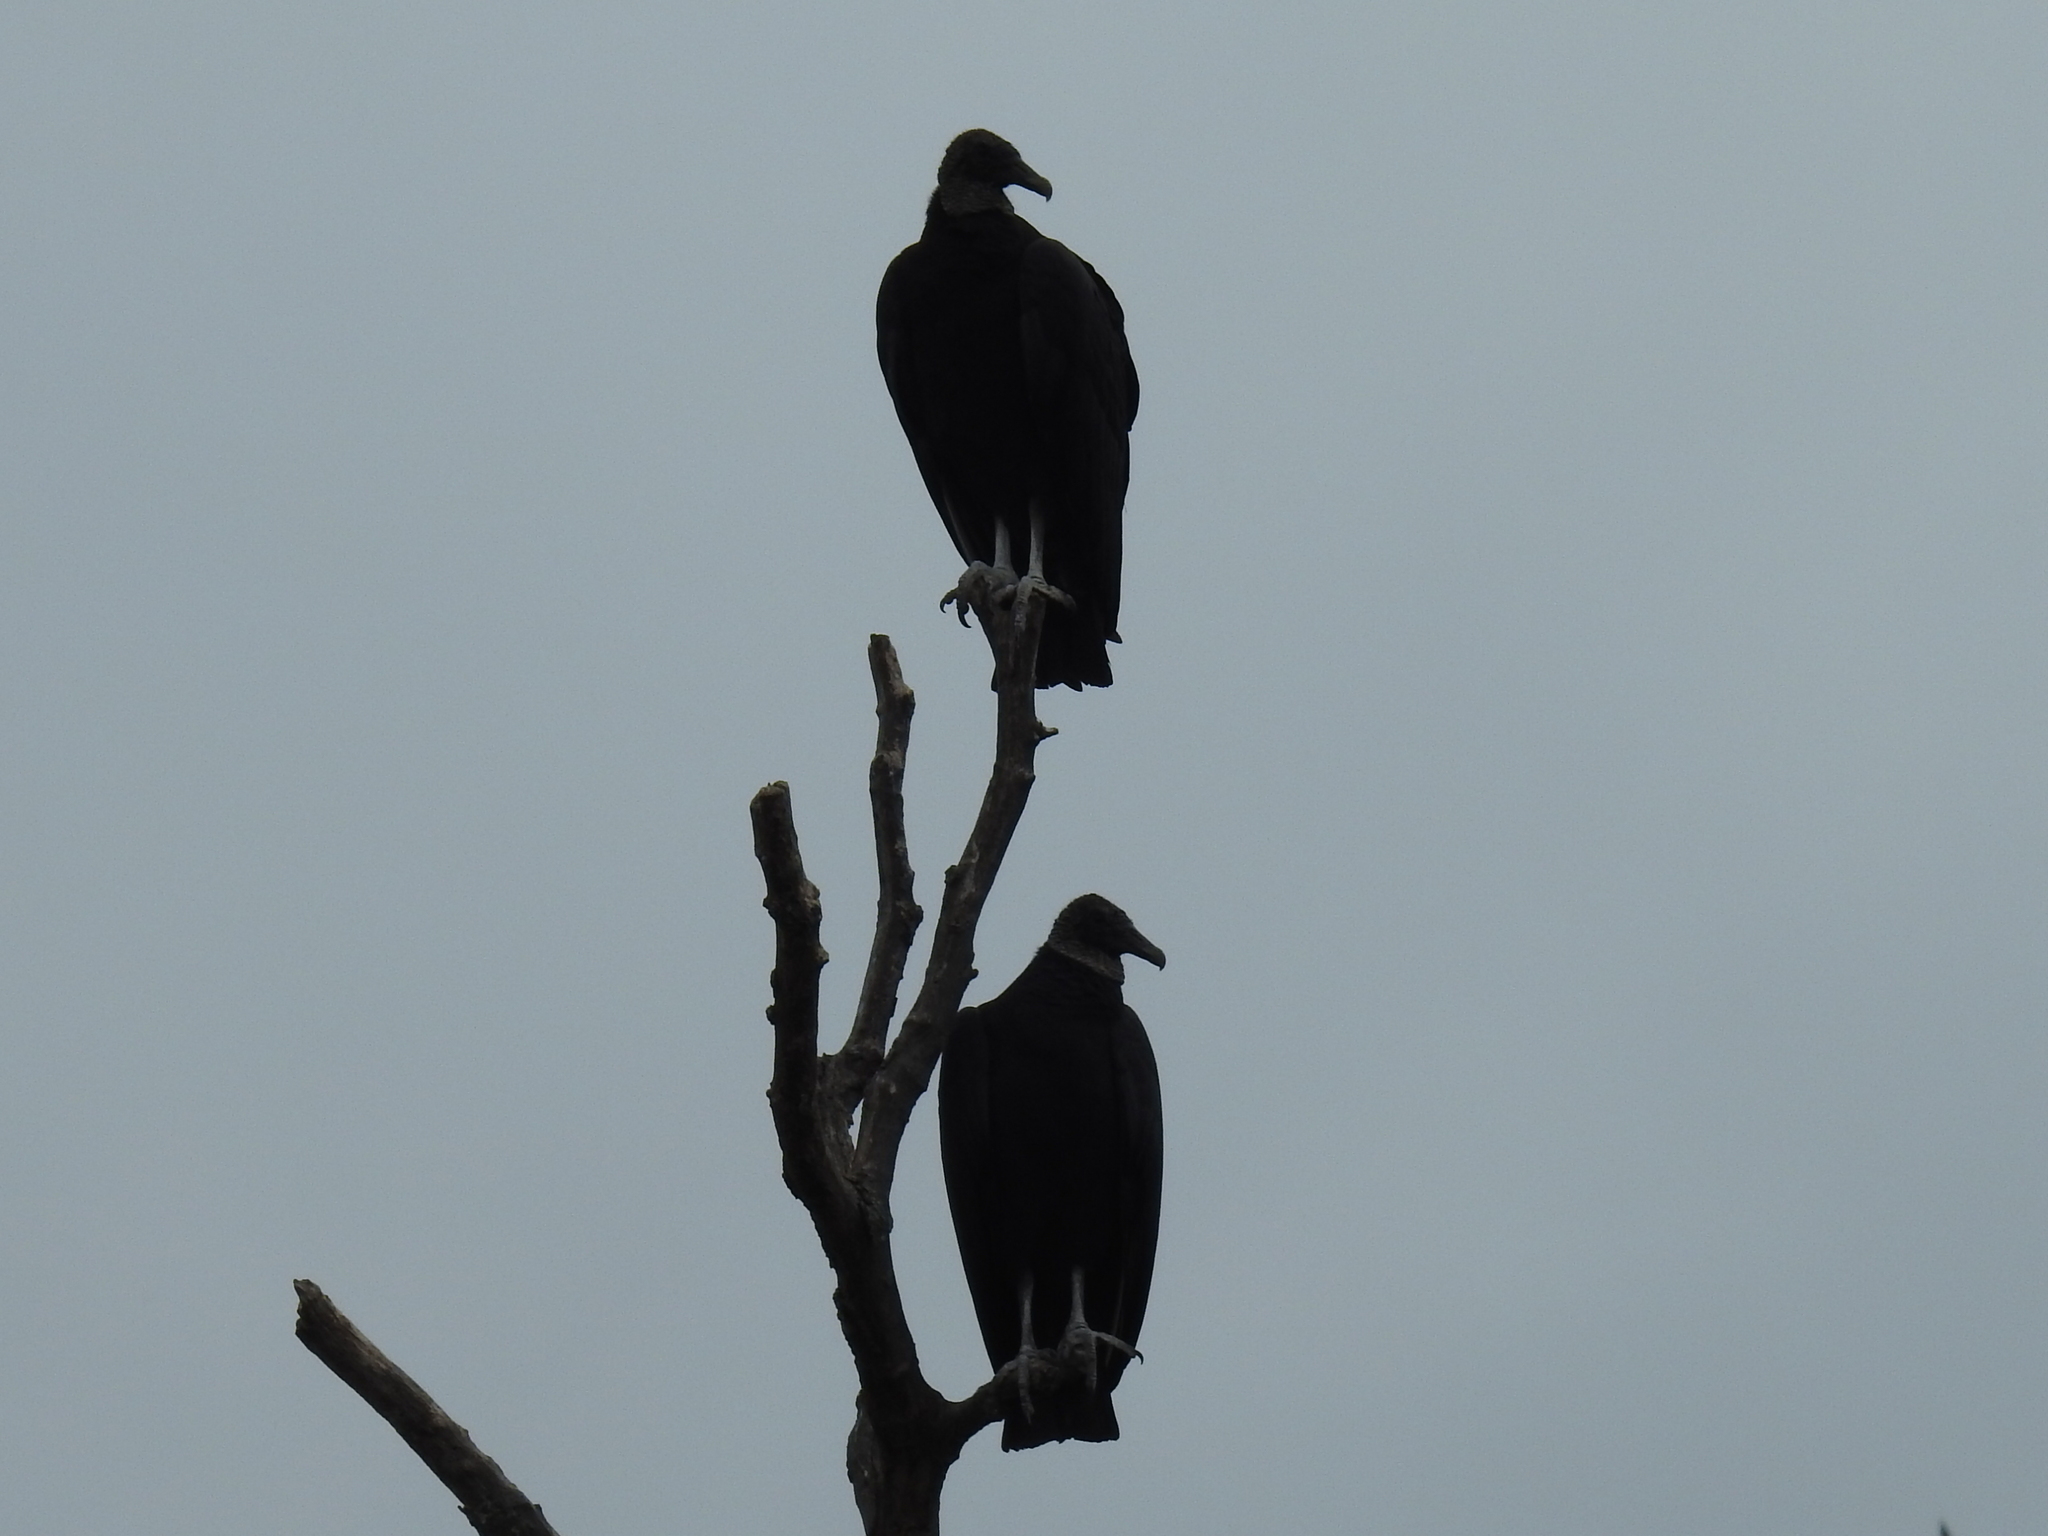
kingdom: Animalia
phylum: Chordata
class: Aves
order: Accipitriformes
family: Cathartidae
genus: Coragyps
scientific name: Coragyps atratus
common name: Black vulture
